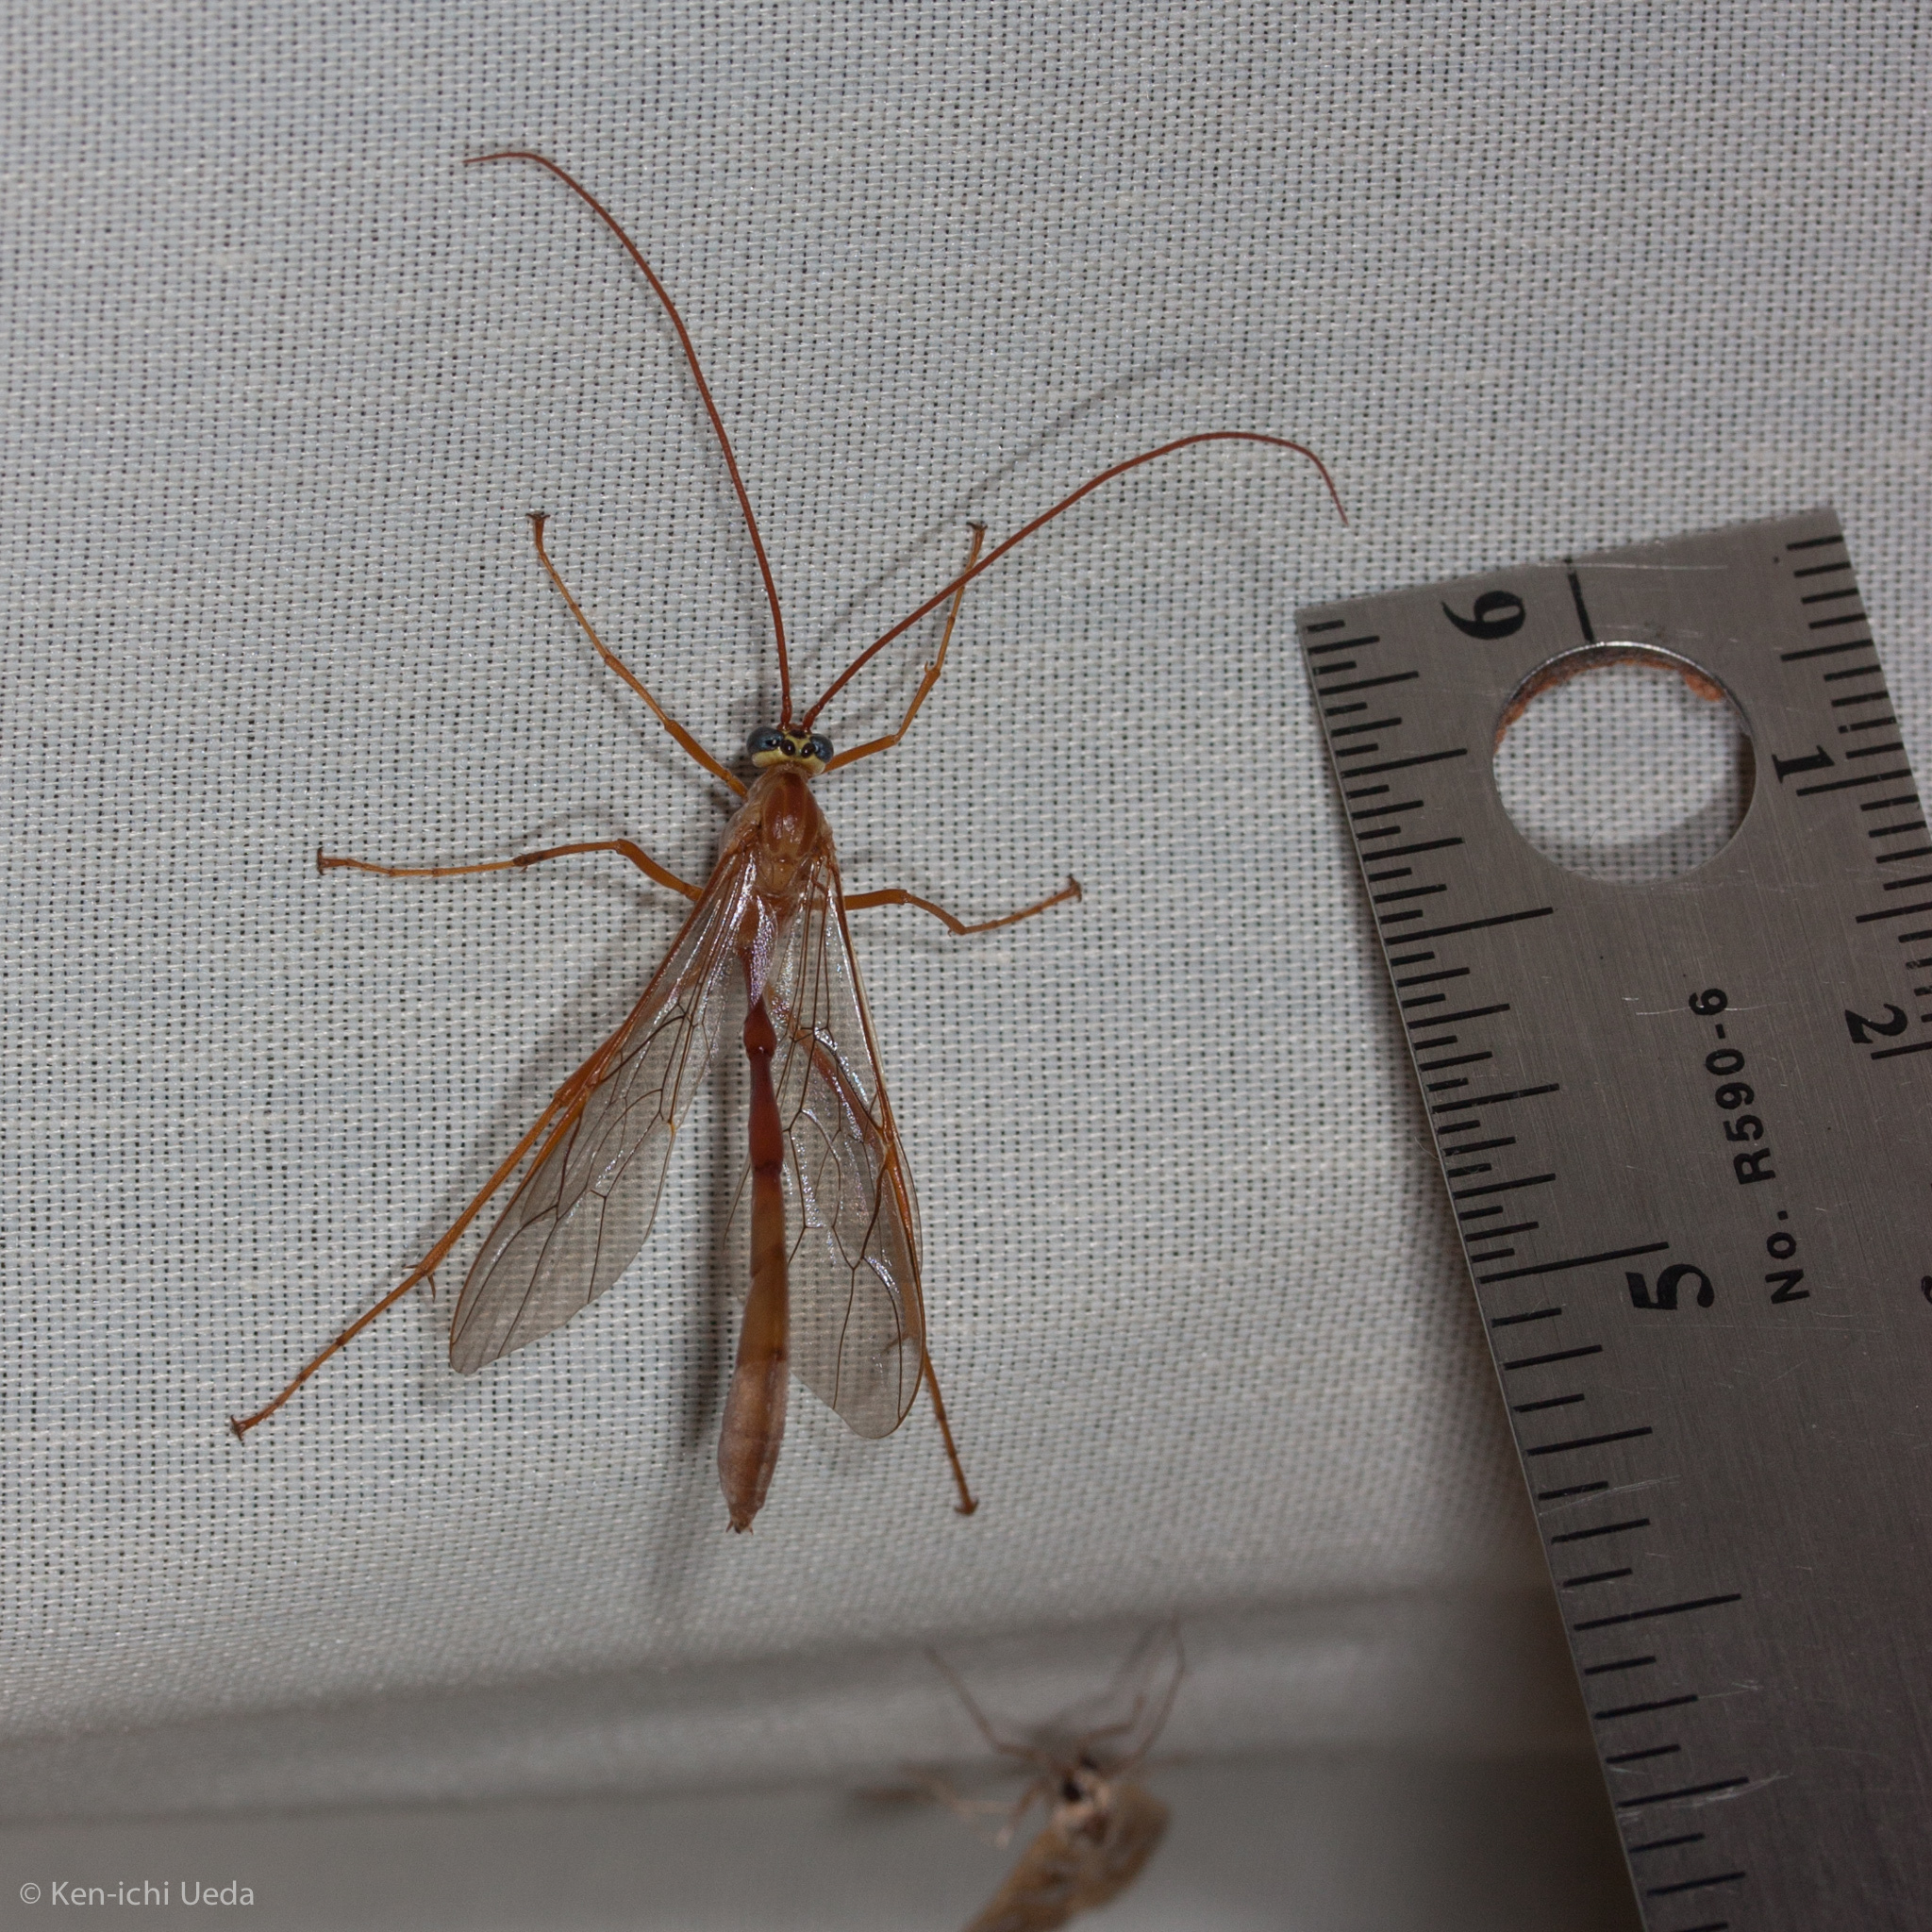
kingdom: Animalia
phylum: Arthropoda
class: Insecta
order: Hymenoptera
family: Ichneumonidae
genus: Enicospilus
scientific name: Enicospilus
